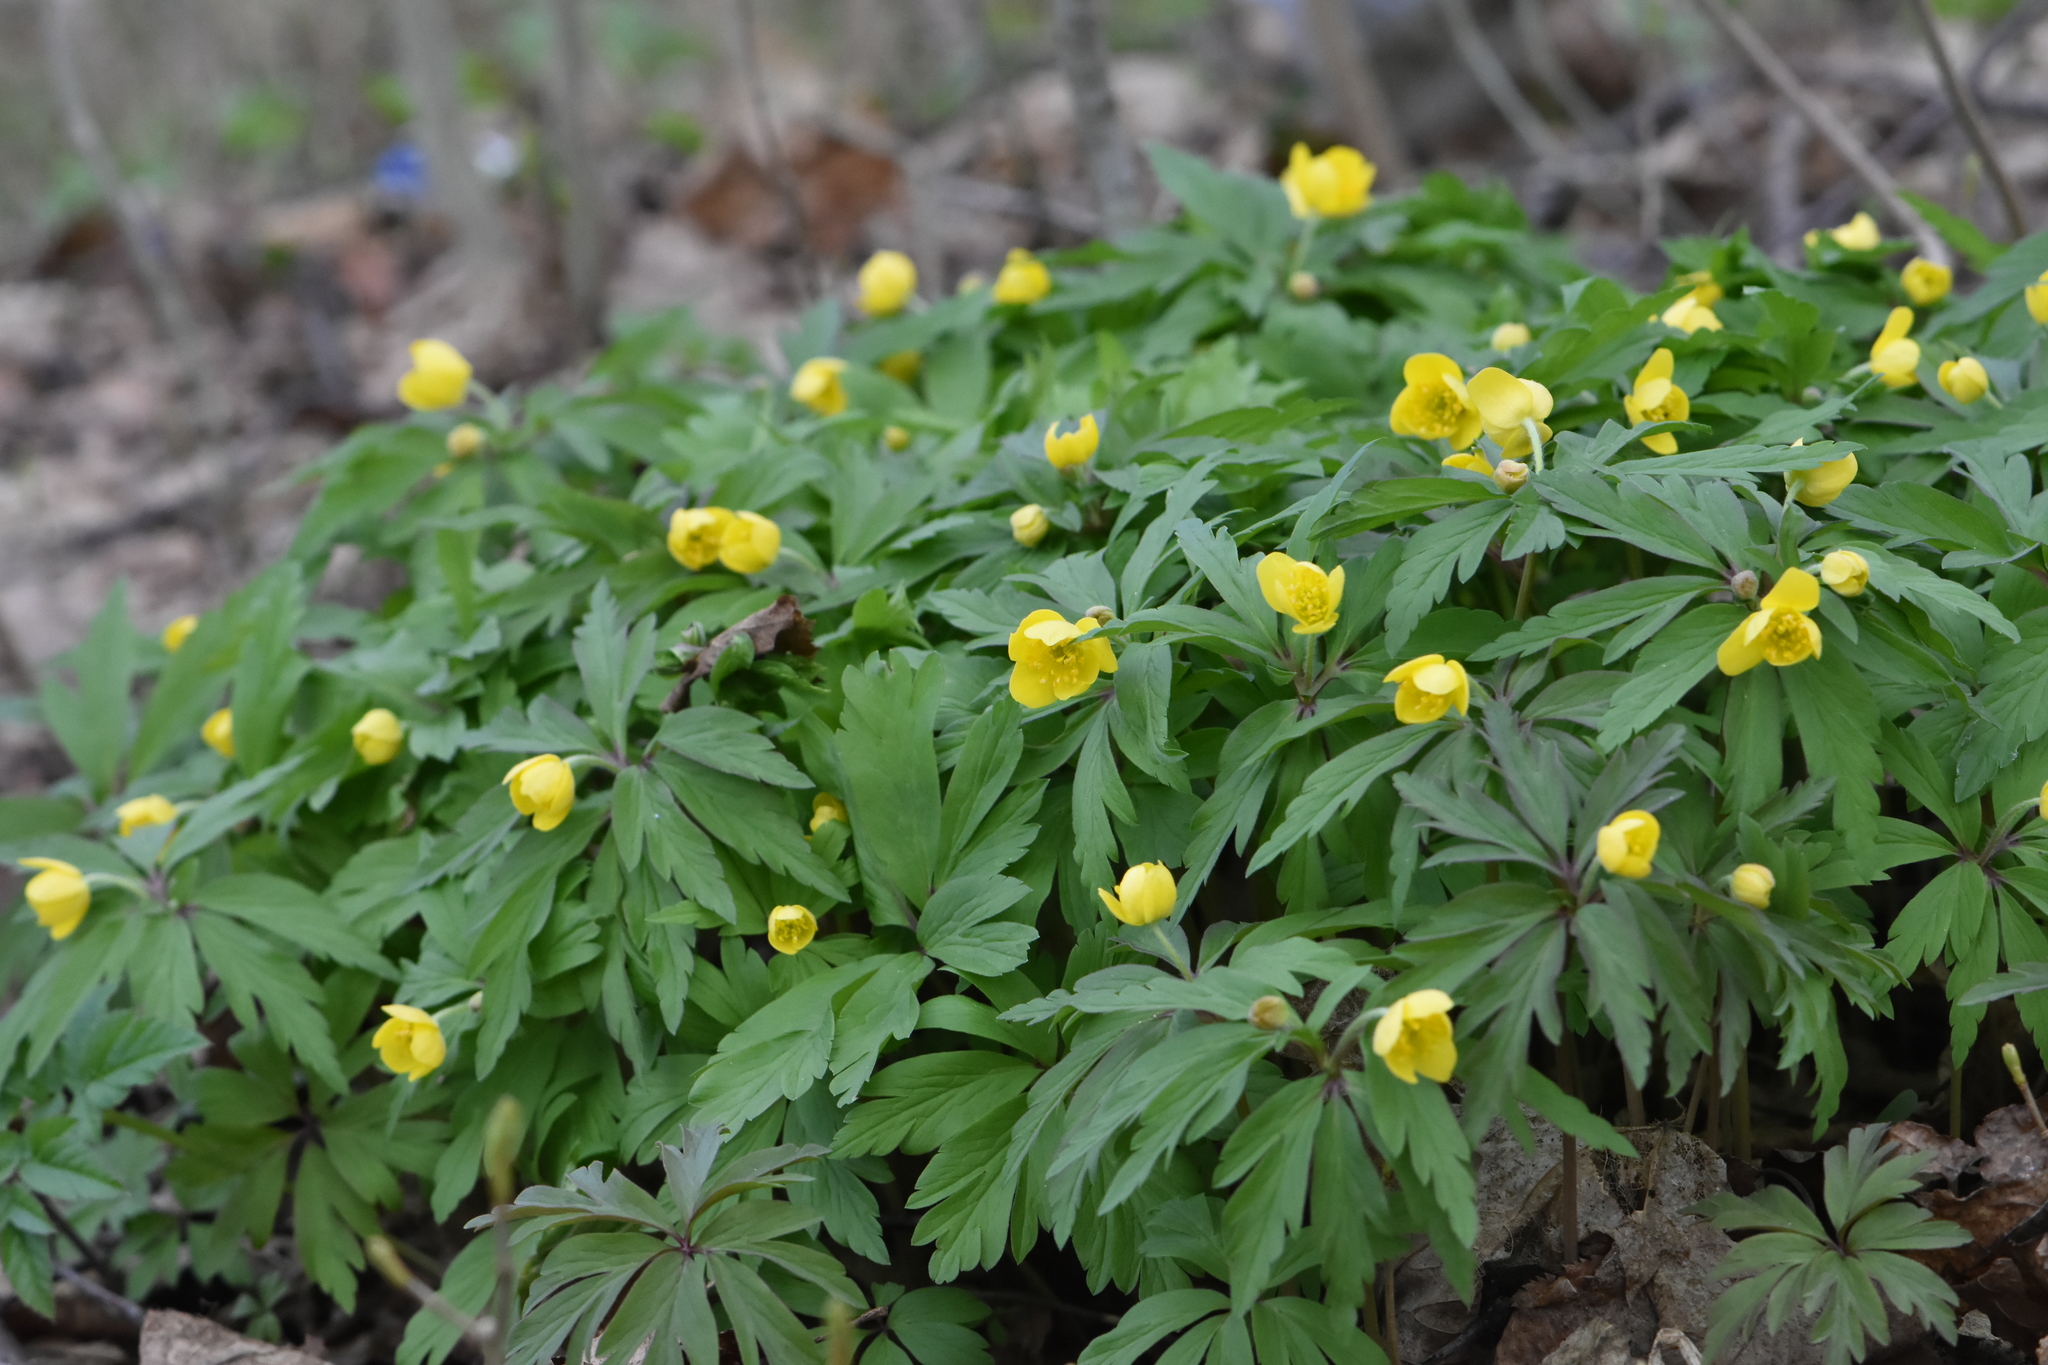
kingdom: Plantae
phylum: Tracheophyta
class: Magnoliopsida
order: Ranunculales
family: Ranunculaceae
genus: Anemone
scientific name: Anemone ranunculoides
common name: Yellow anemone
